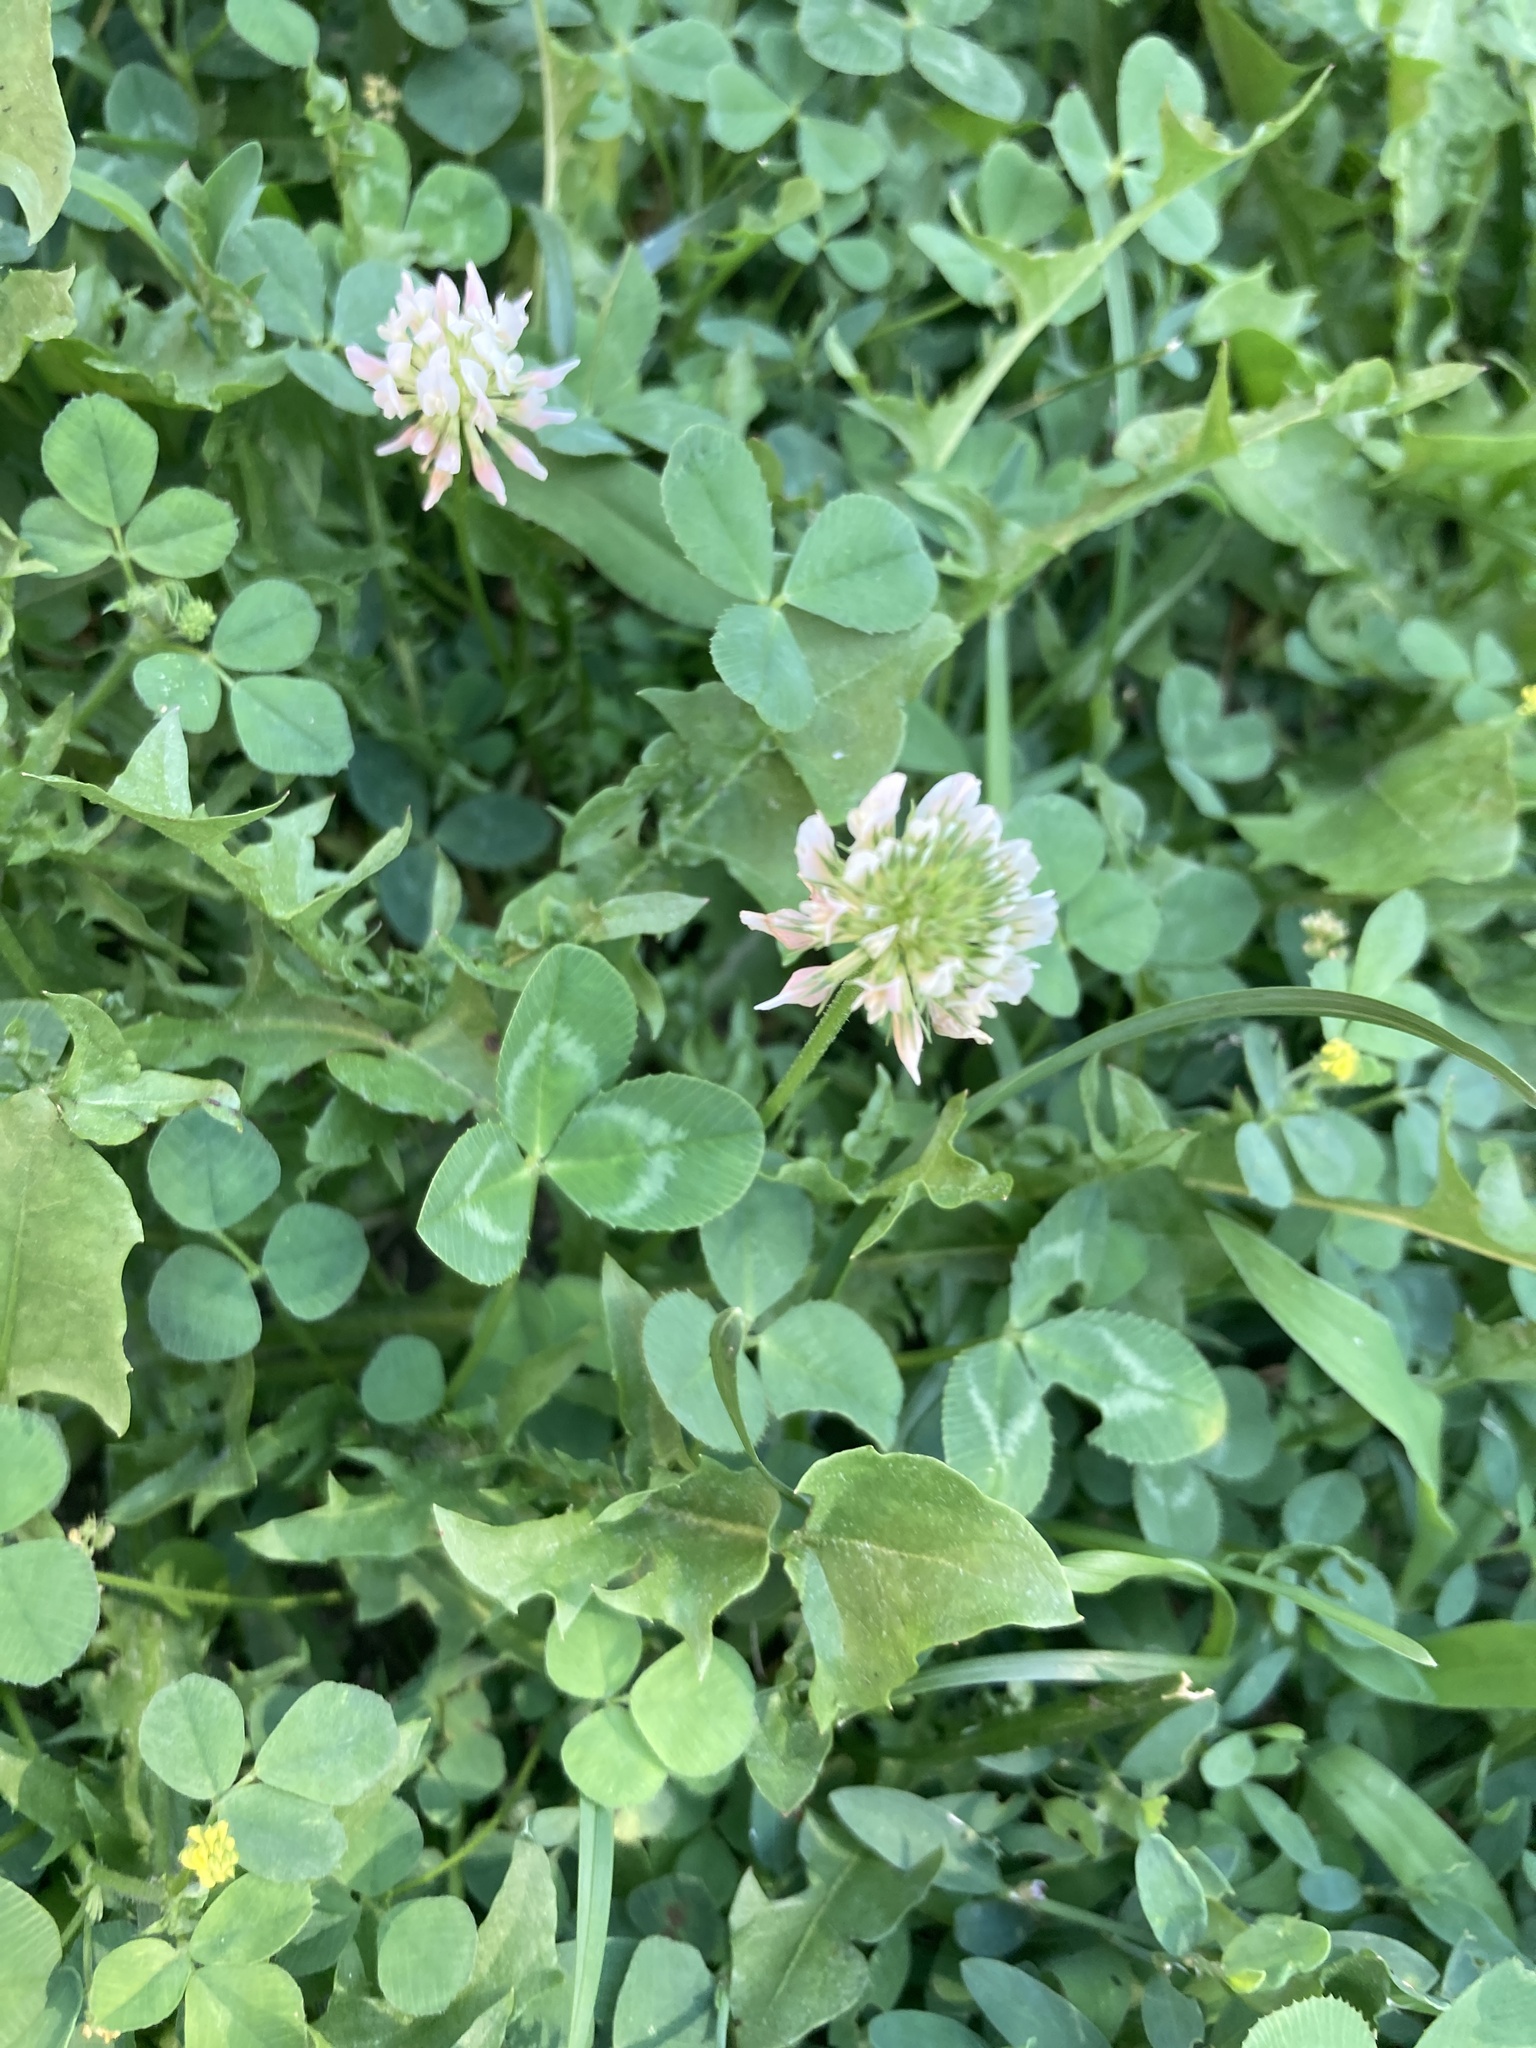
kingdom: Plantae
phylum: Tracheophyta
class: Magnoliopsida
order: Fabales
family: Fabaceae
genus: Trifolium
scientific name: Trifolium repens
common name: White clover
